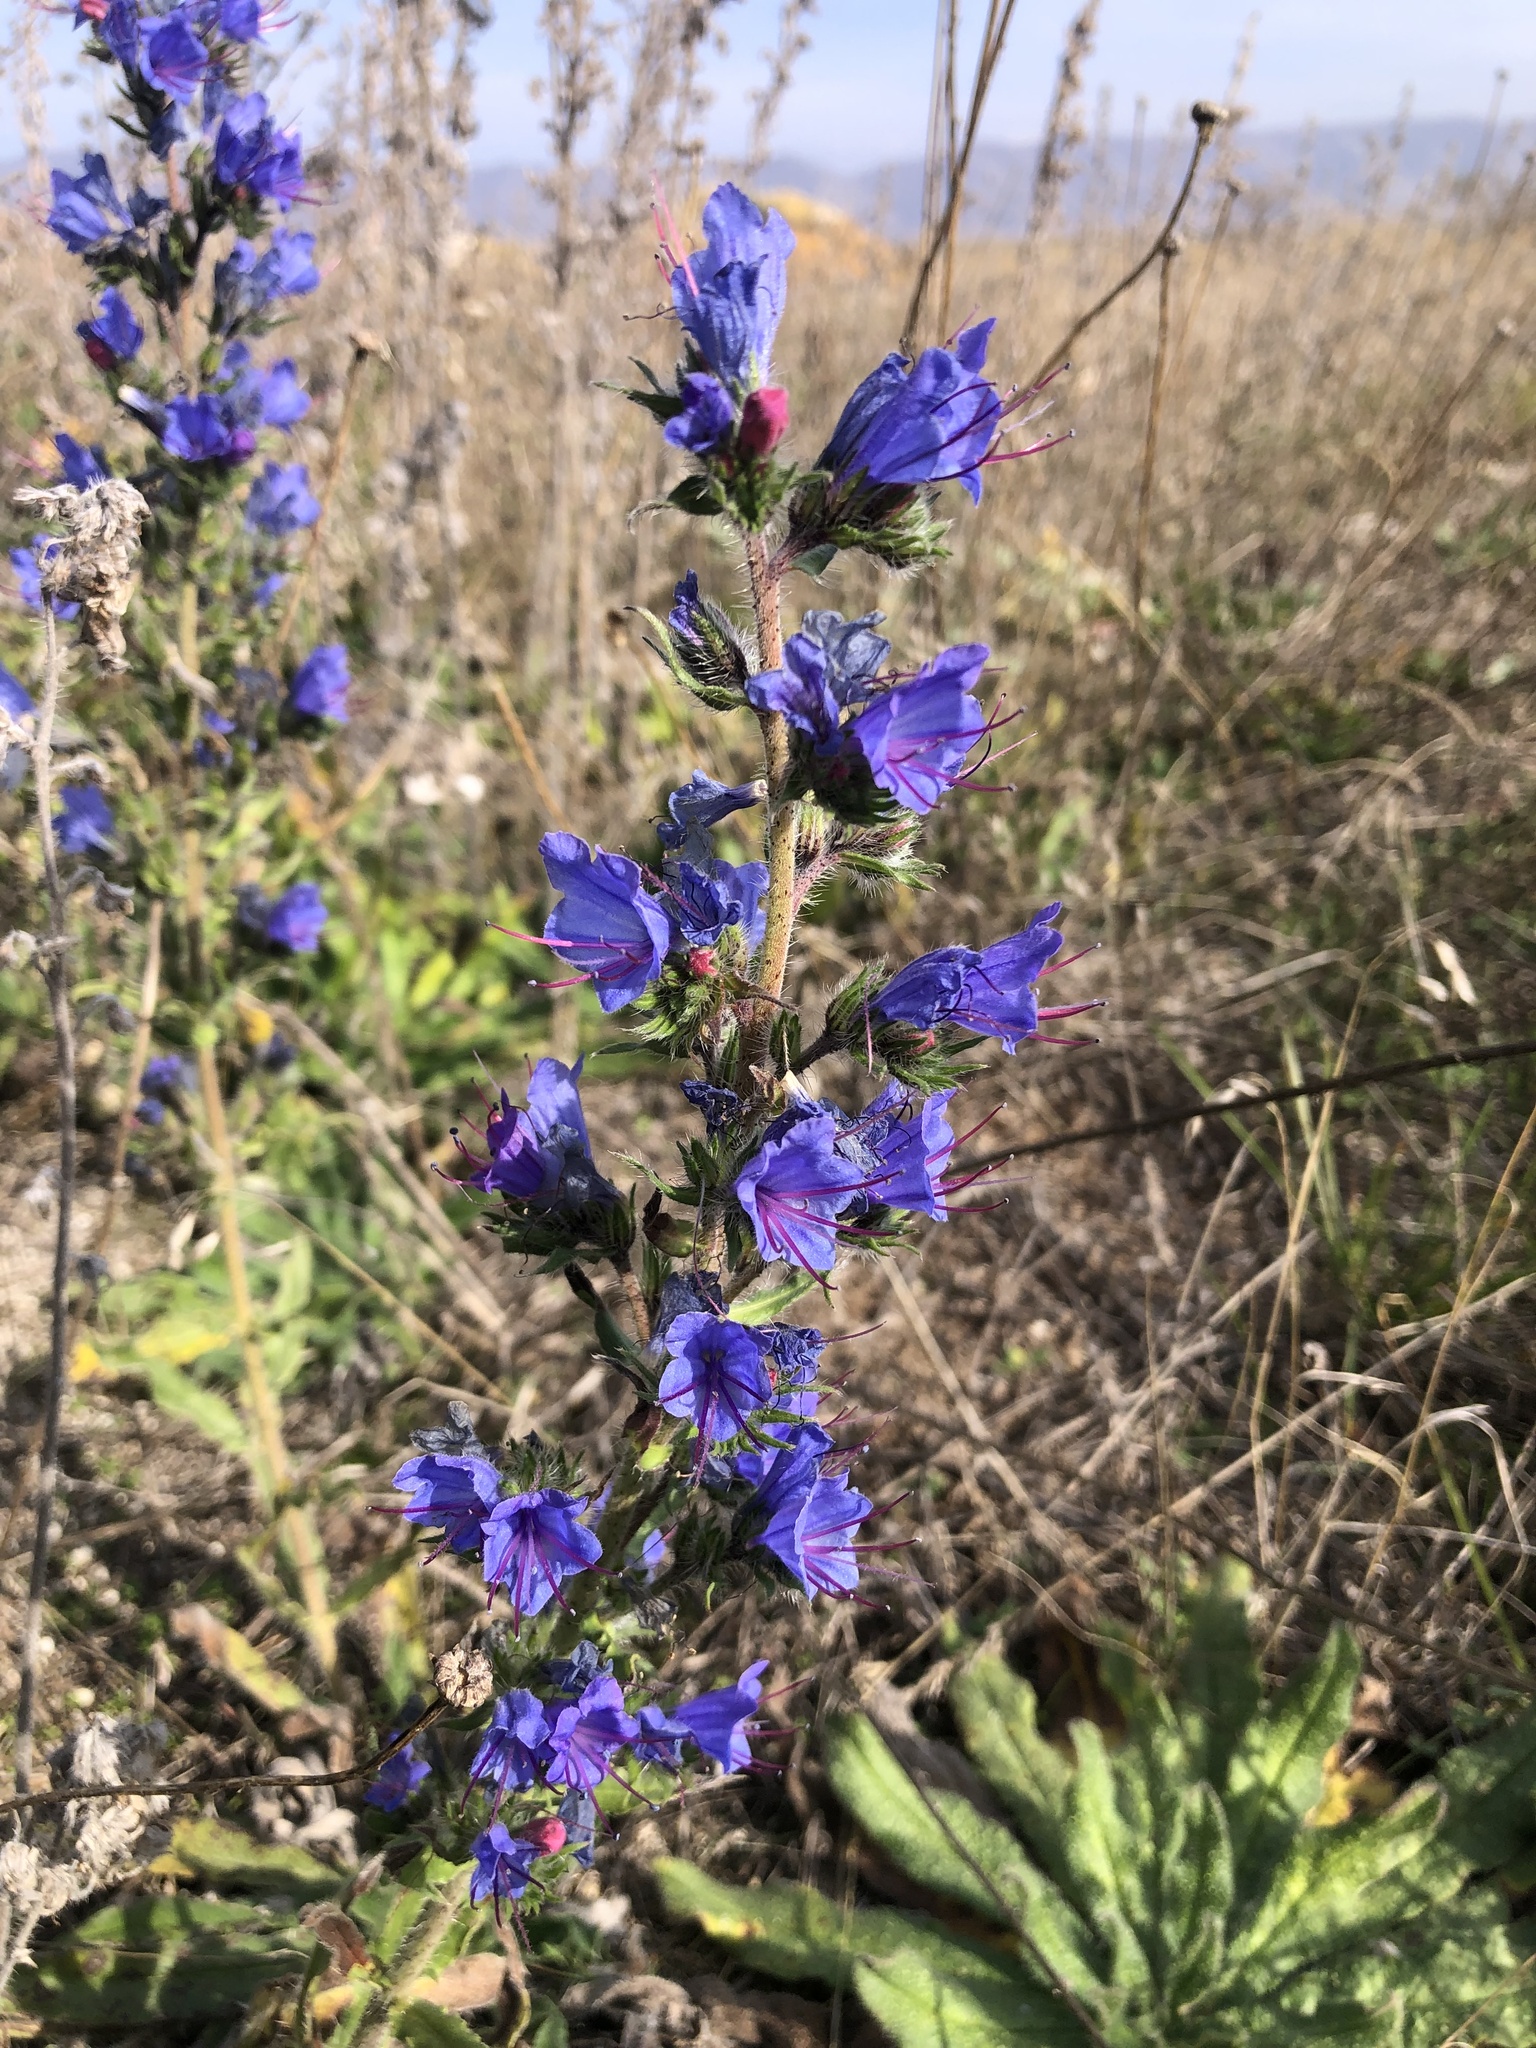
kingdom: Plantae
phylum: Tracheophyta
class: Magnoliopsida
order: Boraginales
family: Boraginaceae
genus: Echium
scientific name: Echium vulgare
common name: Common viper's bugloss
